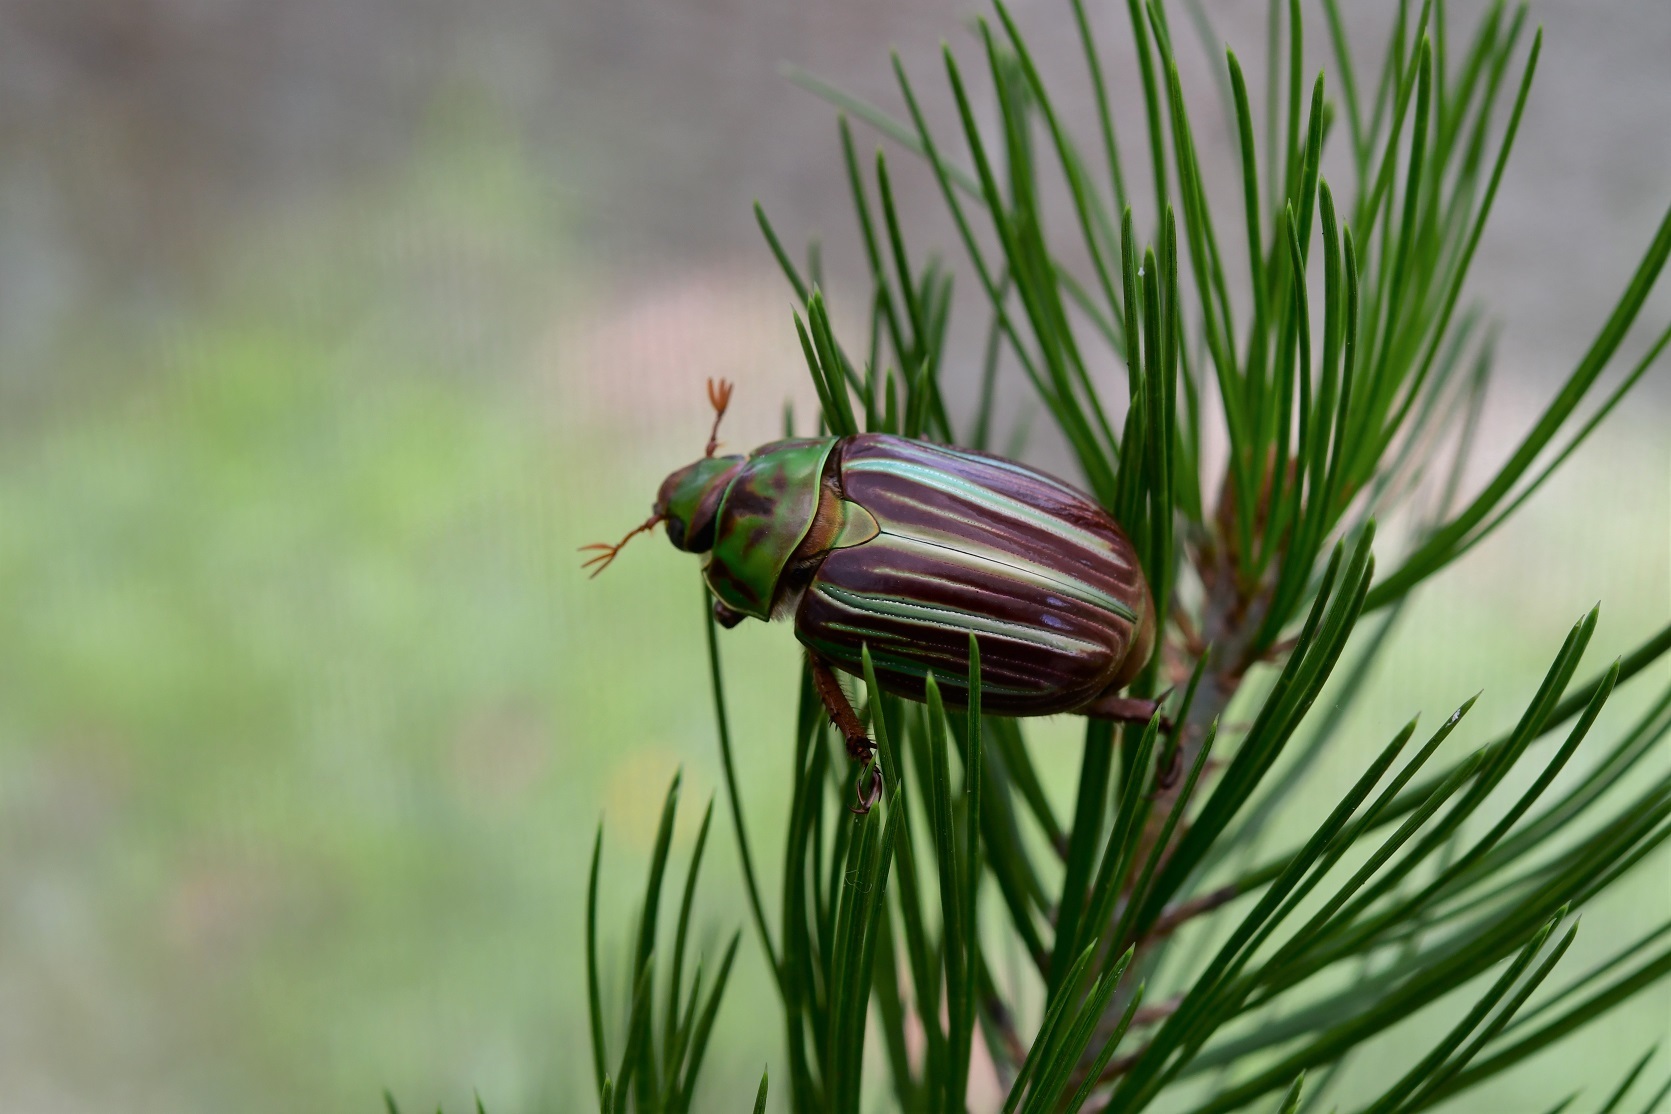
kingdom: Animalia
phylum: Arthropoda
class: Insecta
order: Coleoptera
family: Scarabaeidae
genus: Chrysina
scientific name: Chrysina quetzalcoatli
